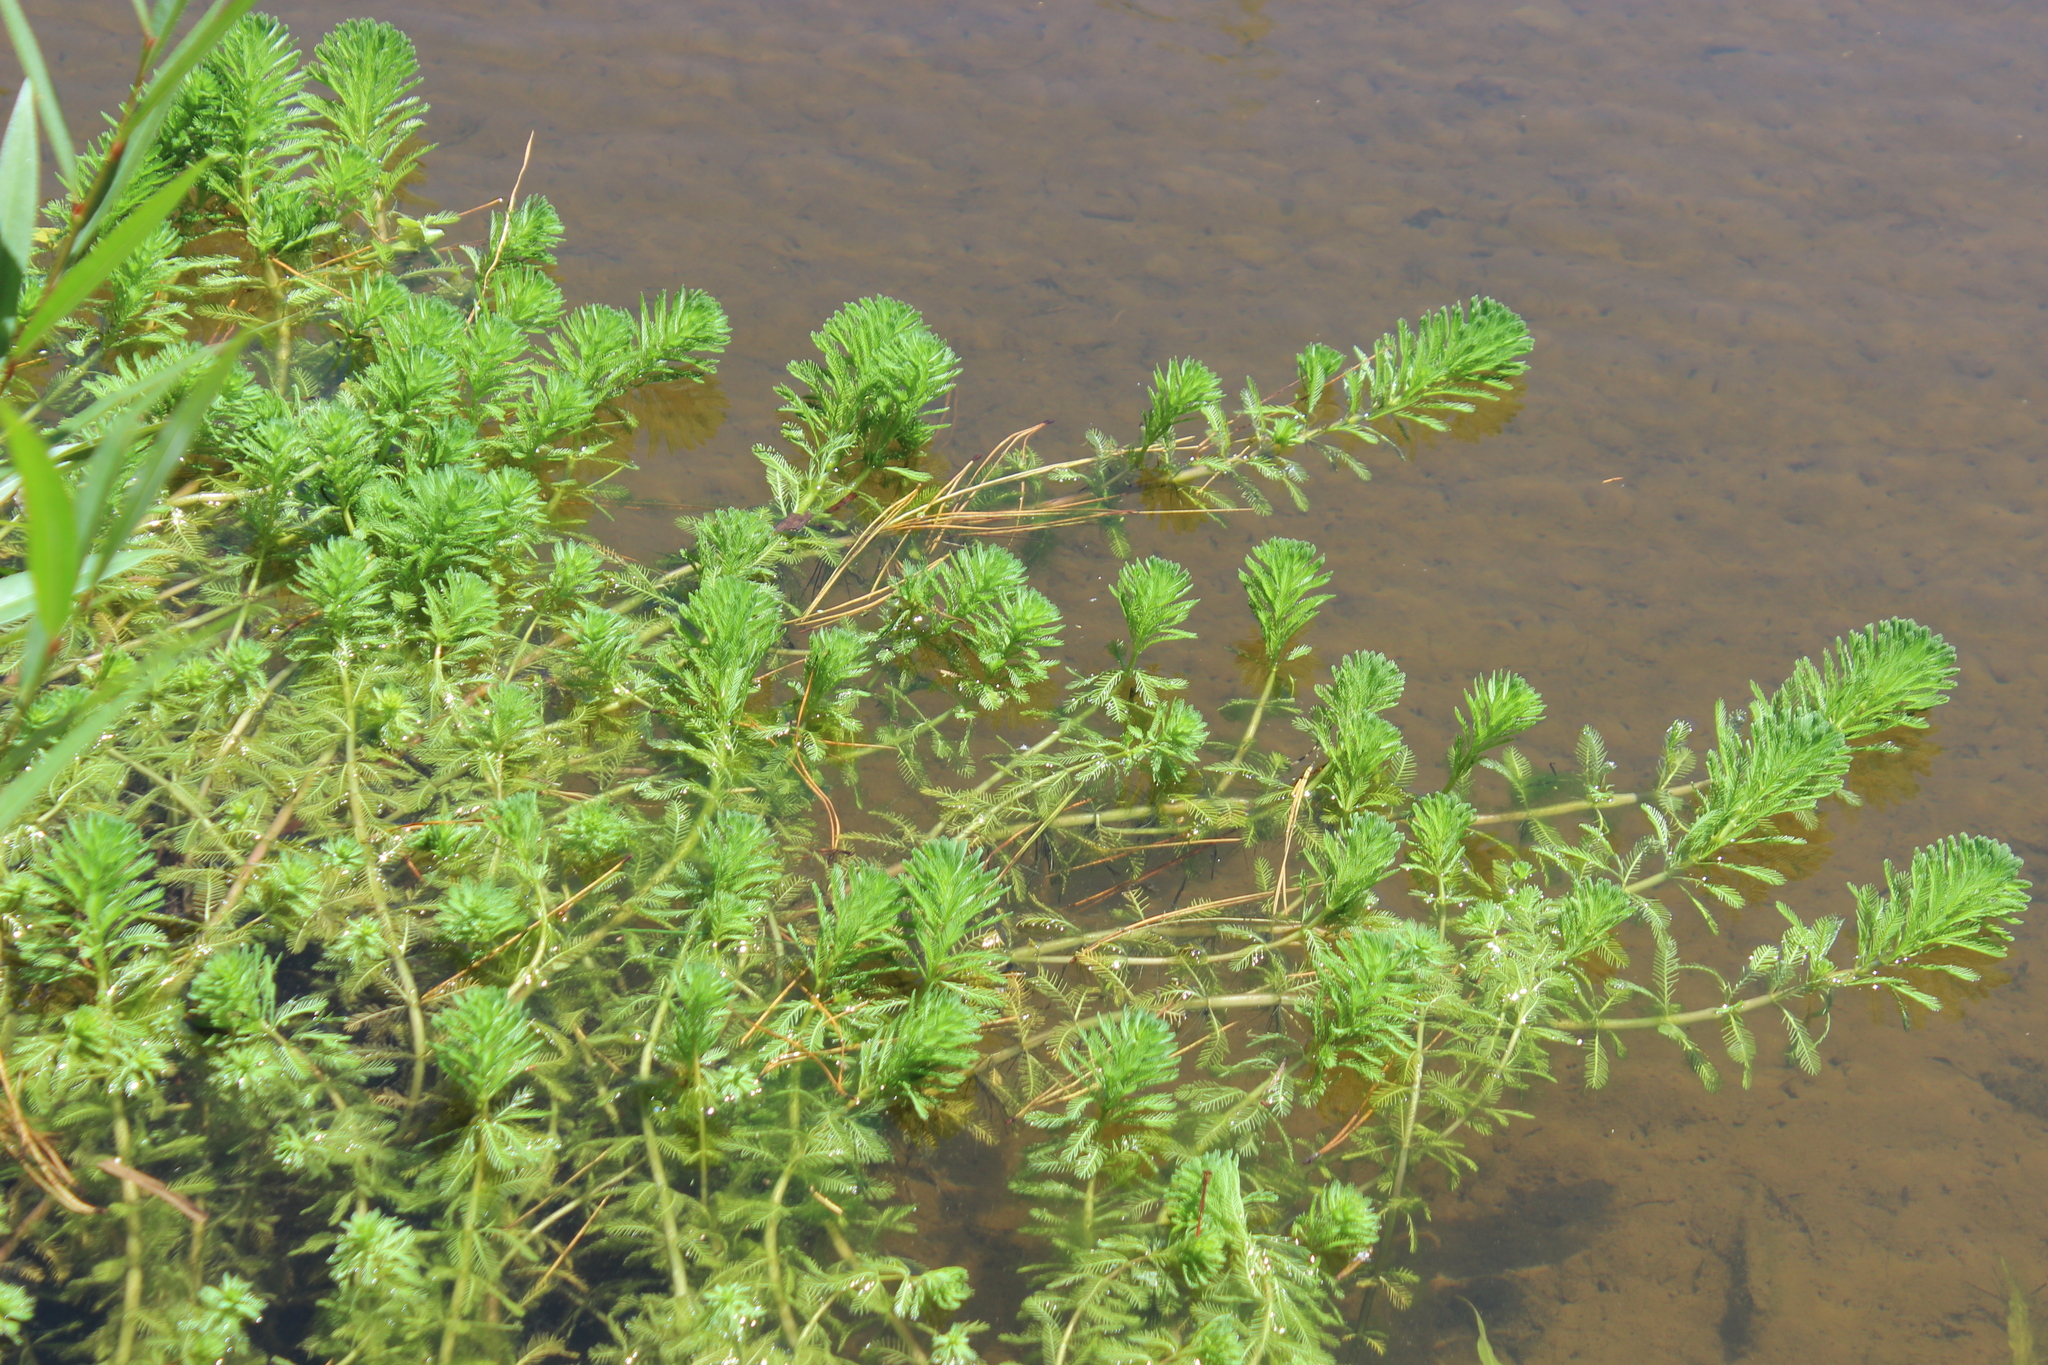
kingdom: Plantae
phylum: Tracheophyta
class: Magnoliopsida
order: Saxifragales
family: Haloragaceae
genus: Myriophyllum
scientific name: Myriophyllum aquaticum
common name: Parrot's feather
